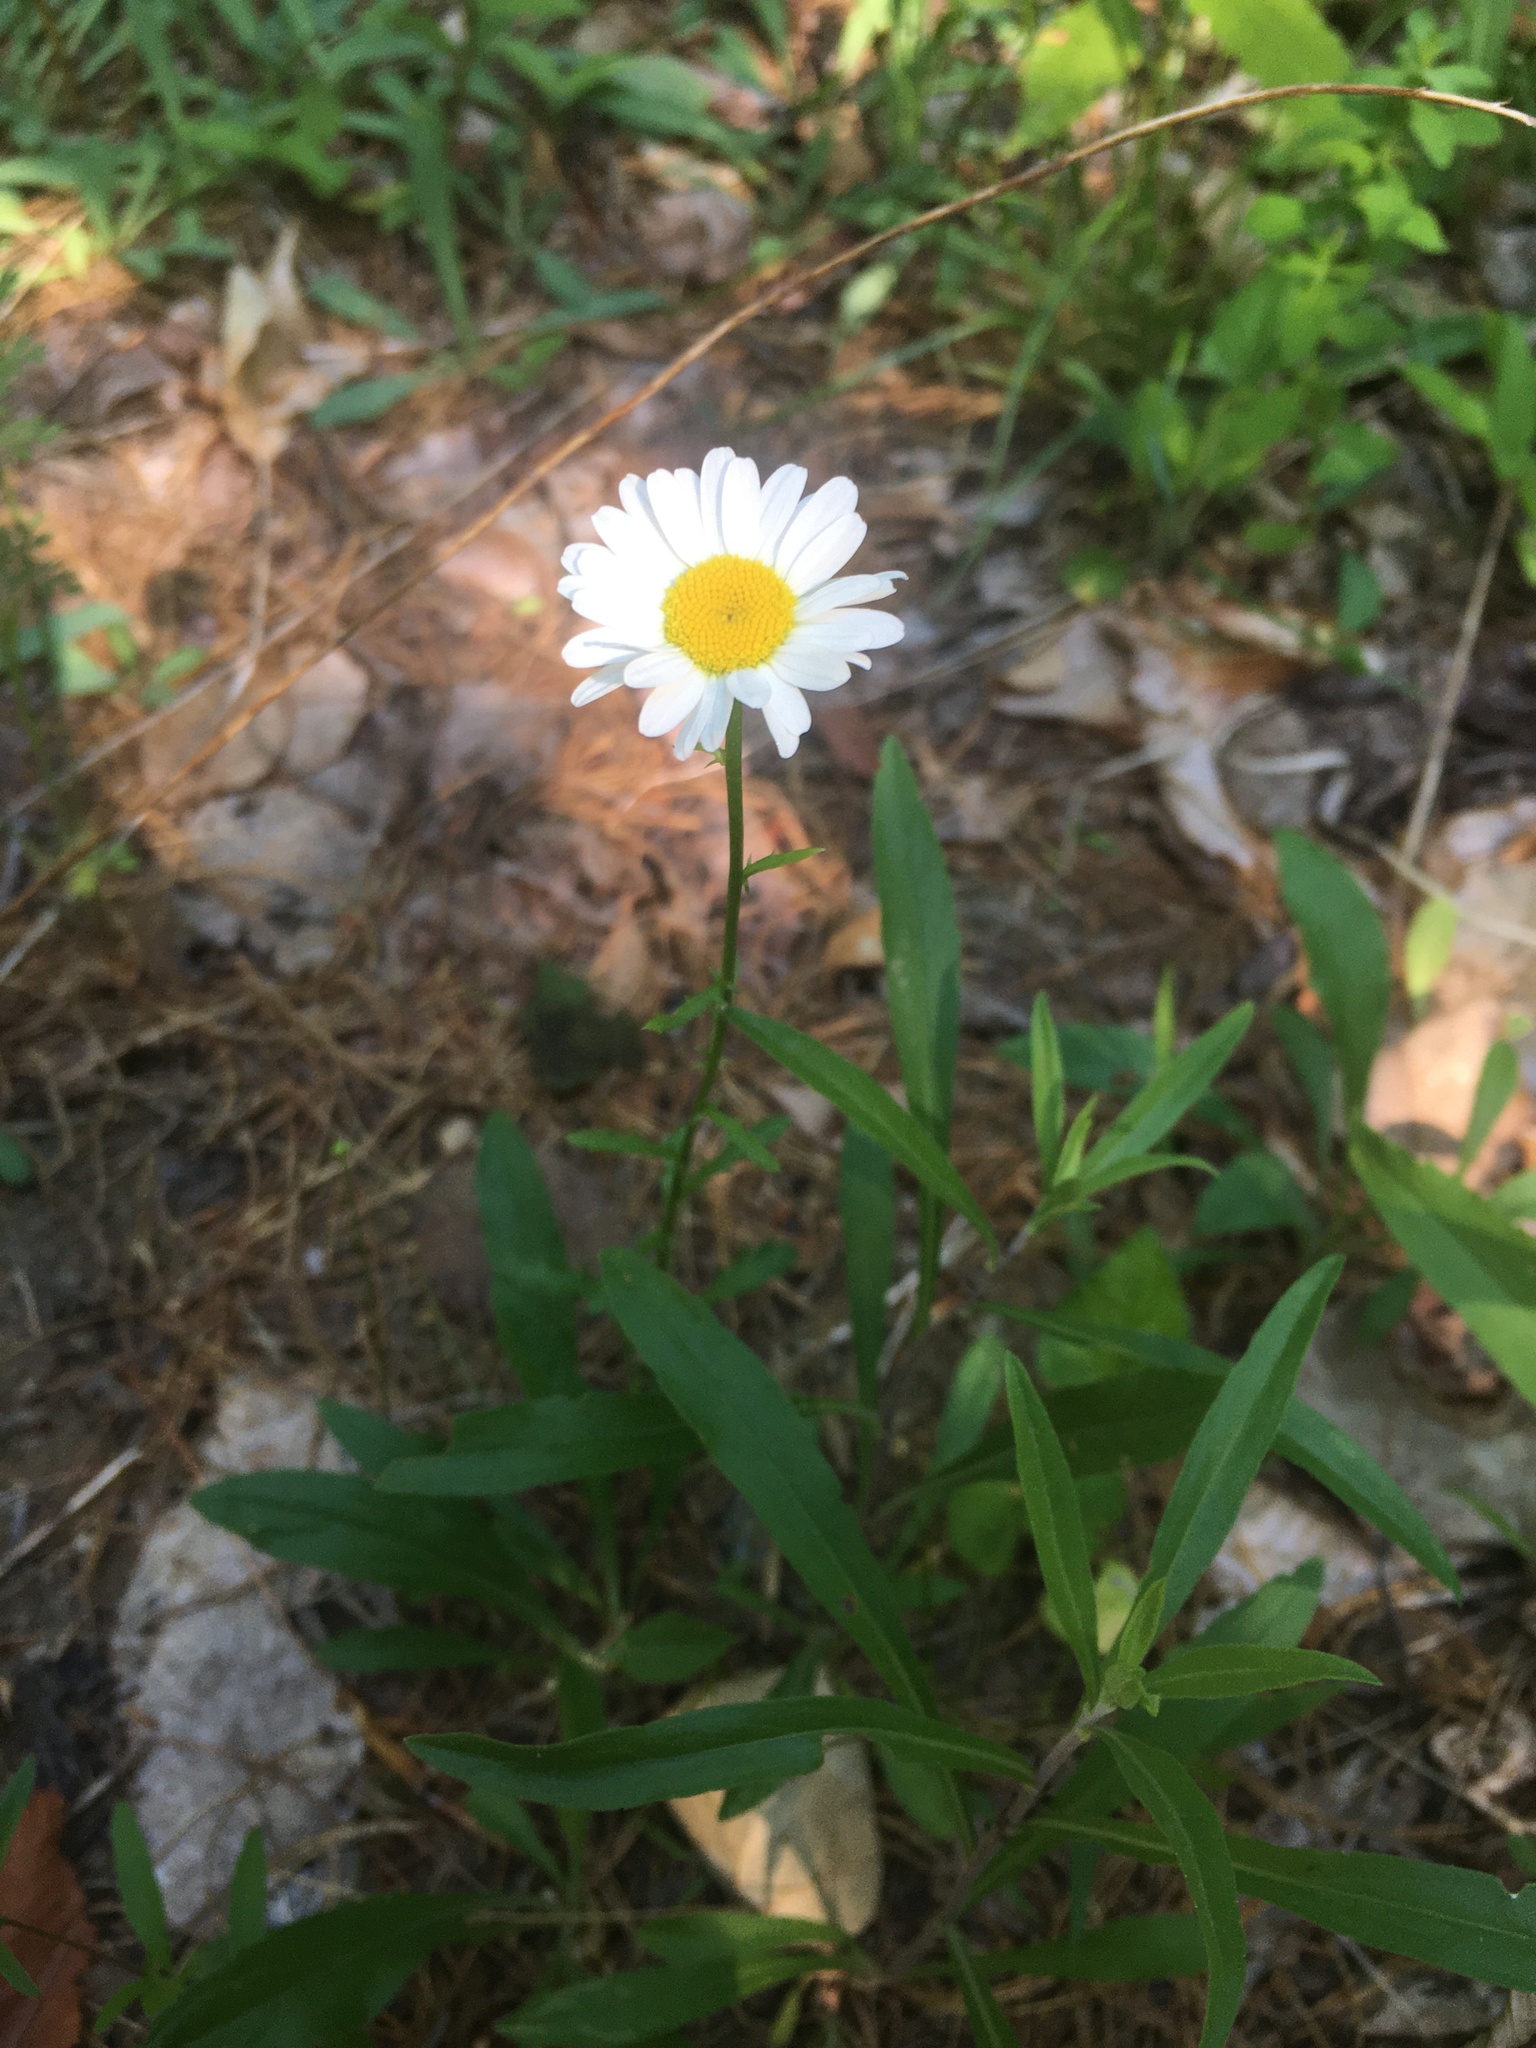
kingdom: Plantae
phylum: Tracheophyta
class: Magnoliopsida
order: Asterales
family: Asteraceae
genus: Leucanthemum
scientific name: Leucanthemum vulgare
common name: Oxeye daisy
